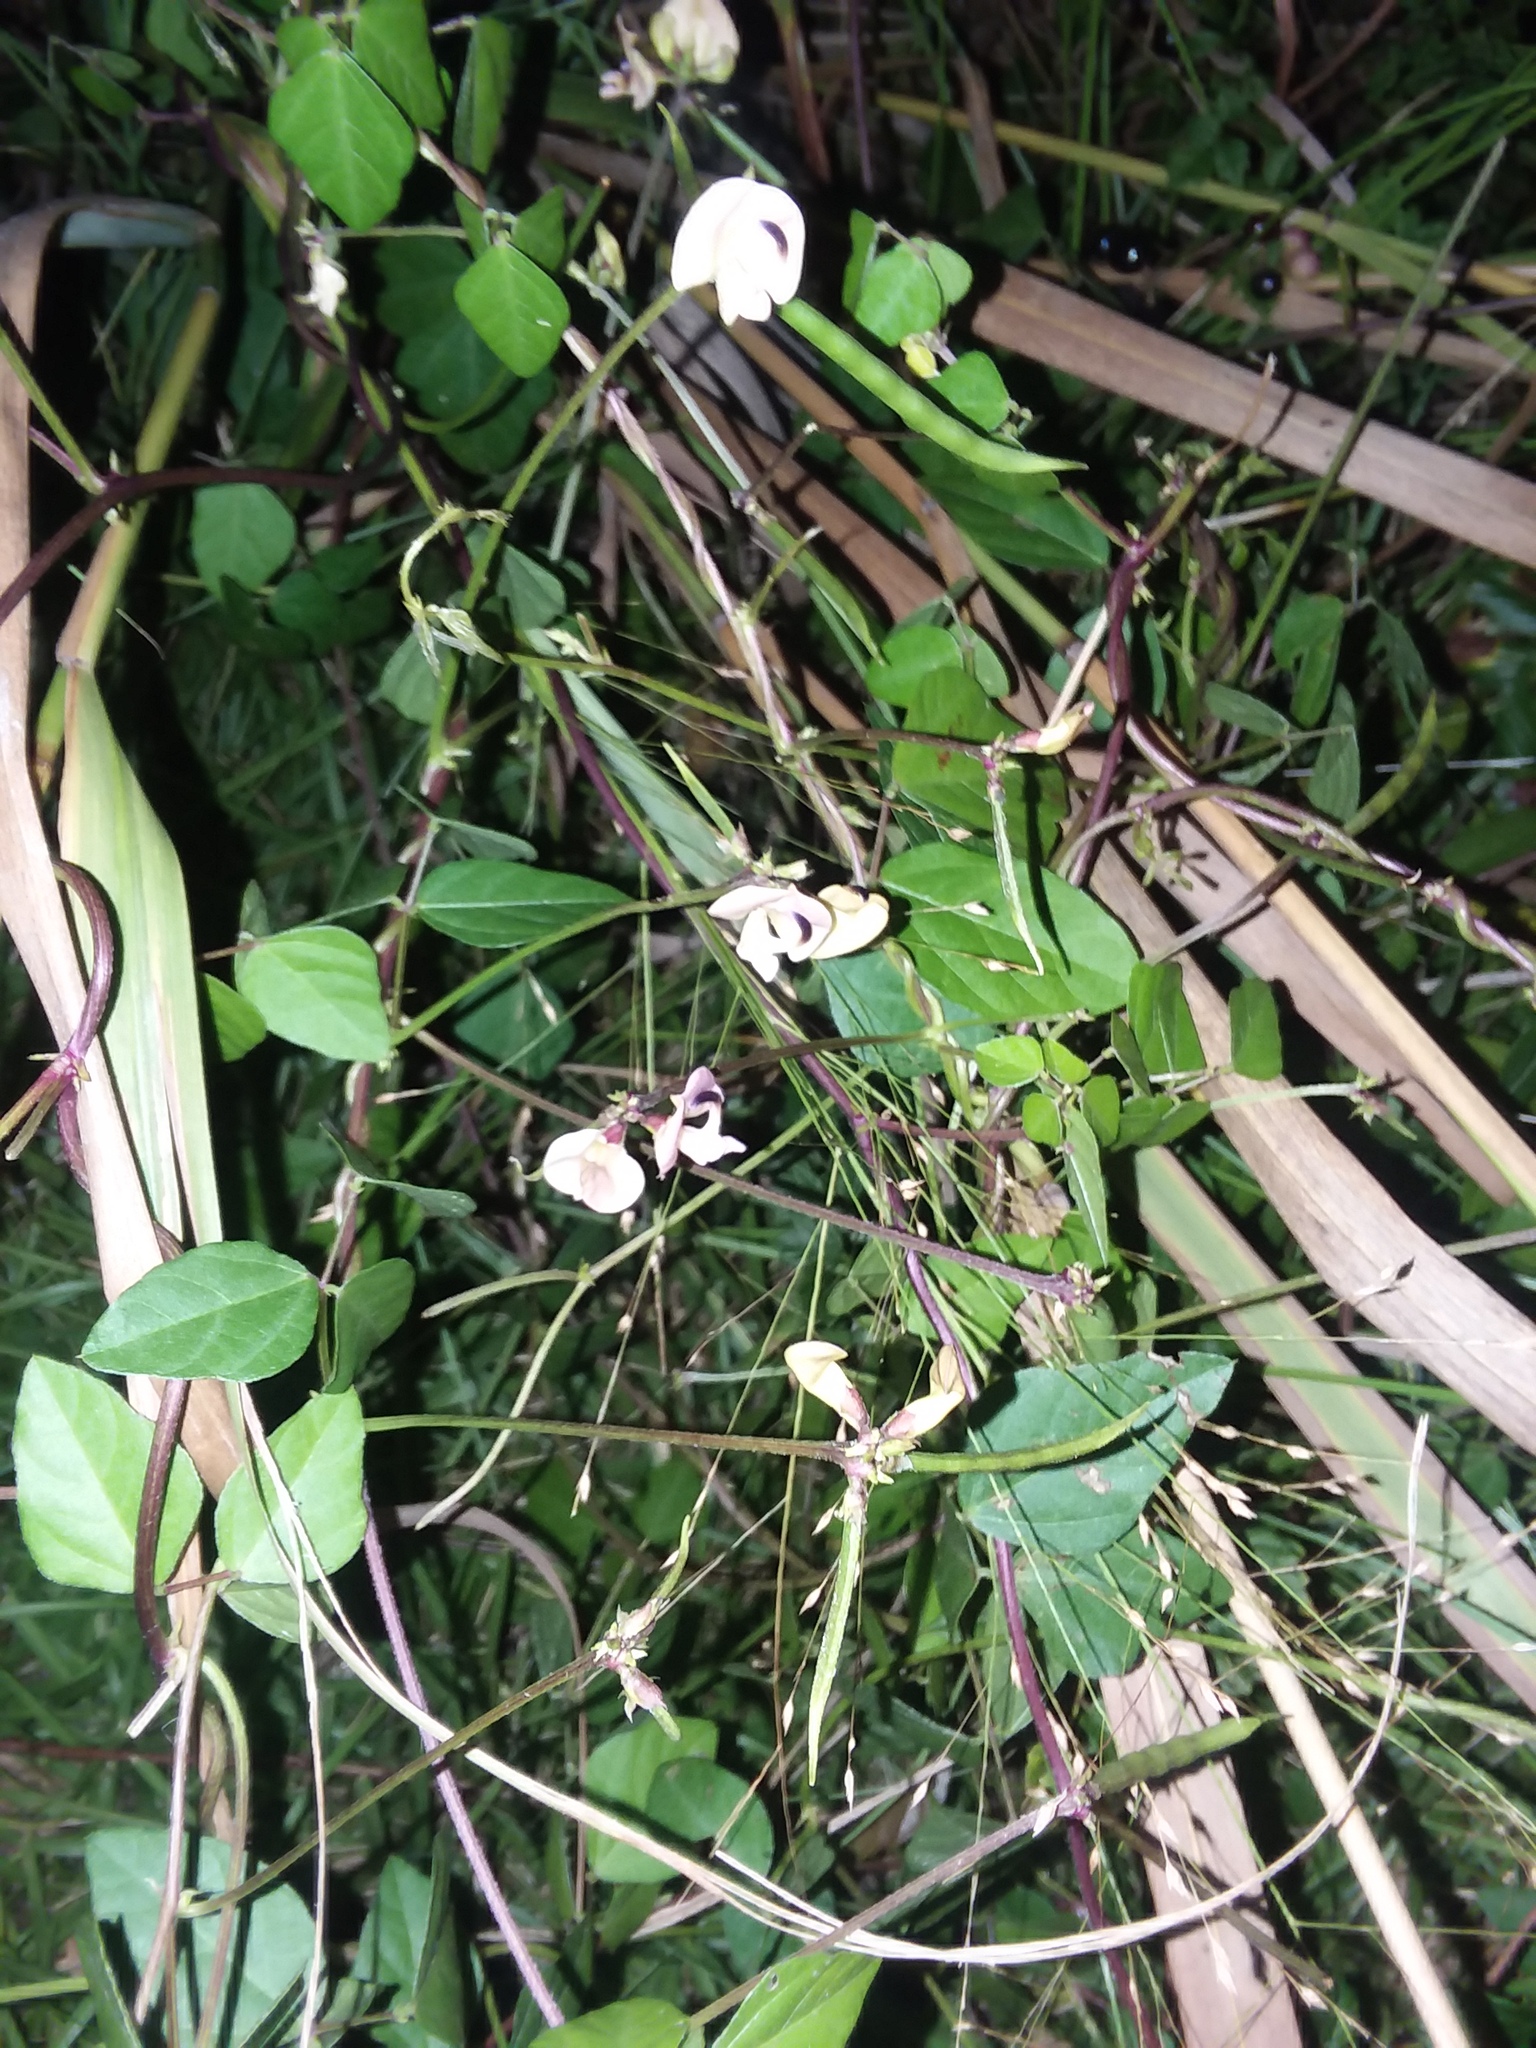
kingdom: Plantae
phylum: Tracheophyta
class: Magnoliopsida
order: Fabales
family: Fabaceae
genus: Strophostyles
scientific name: Strophostyles helvola
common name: Trailing wild bean
